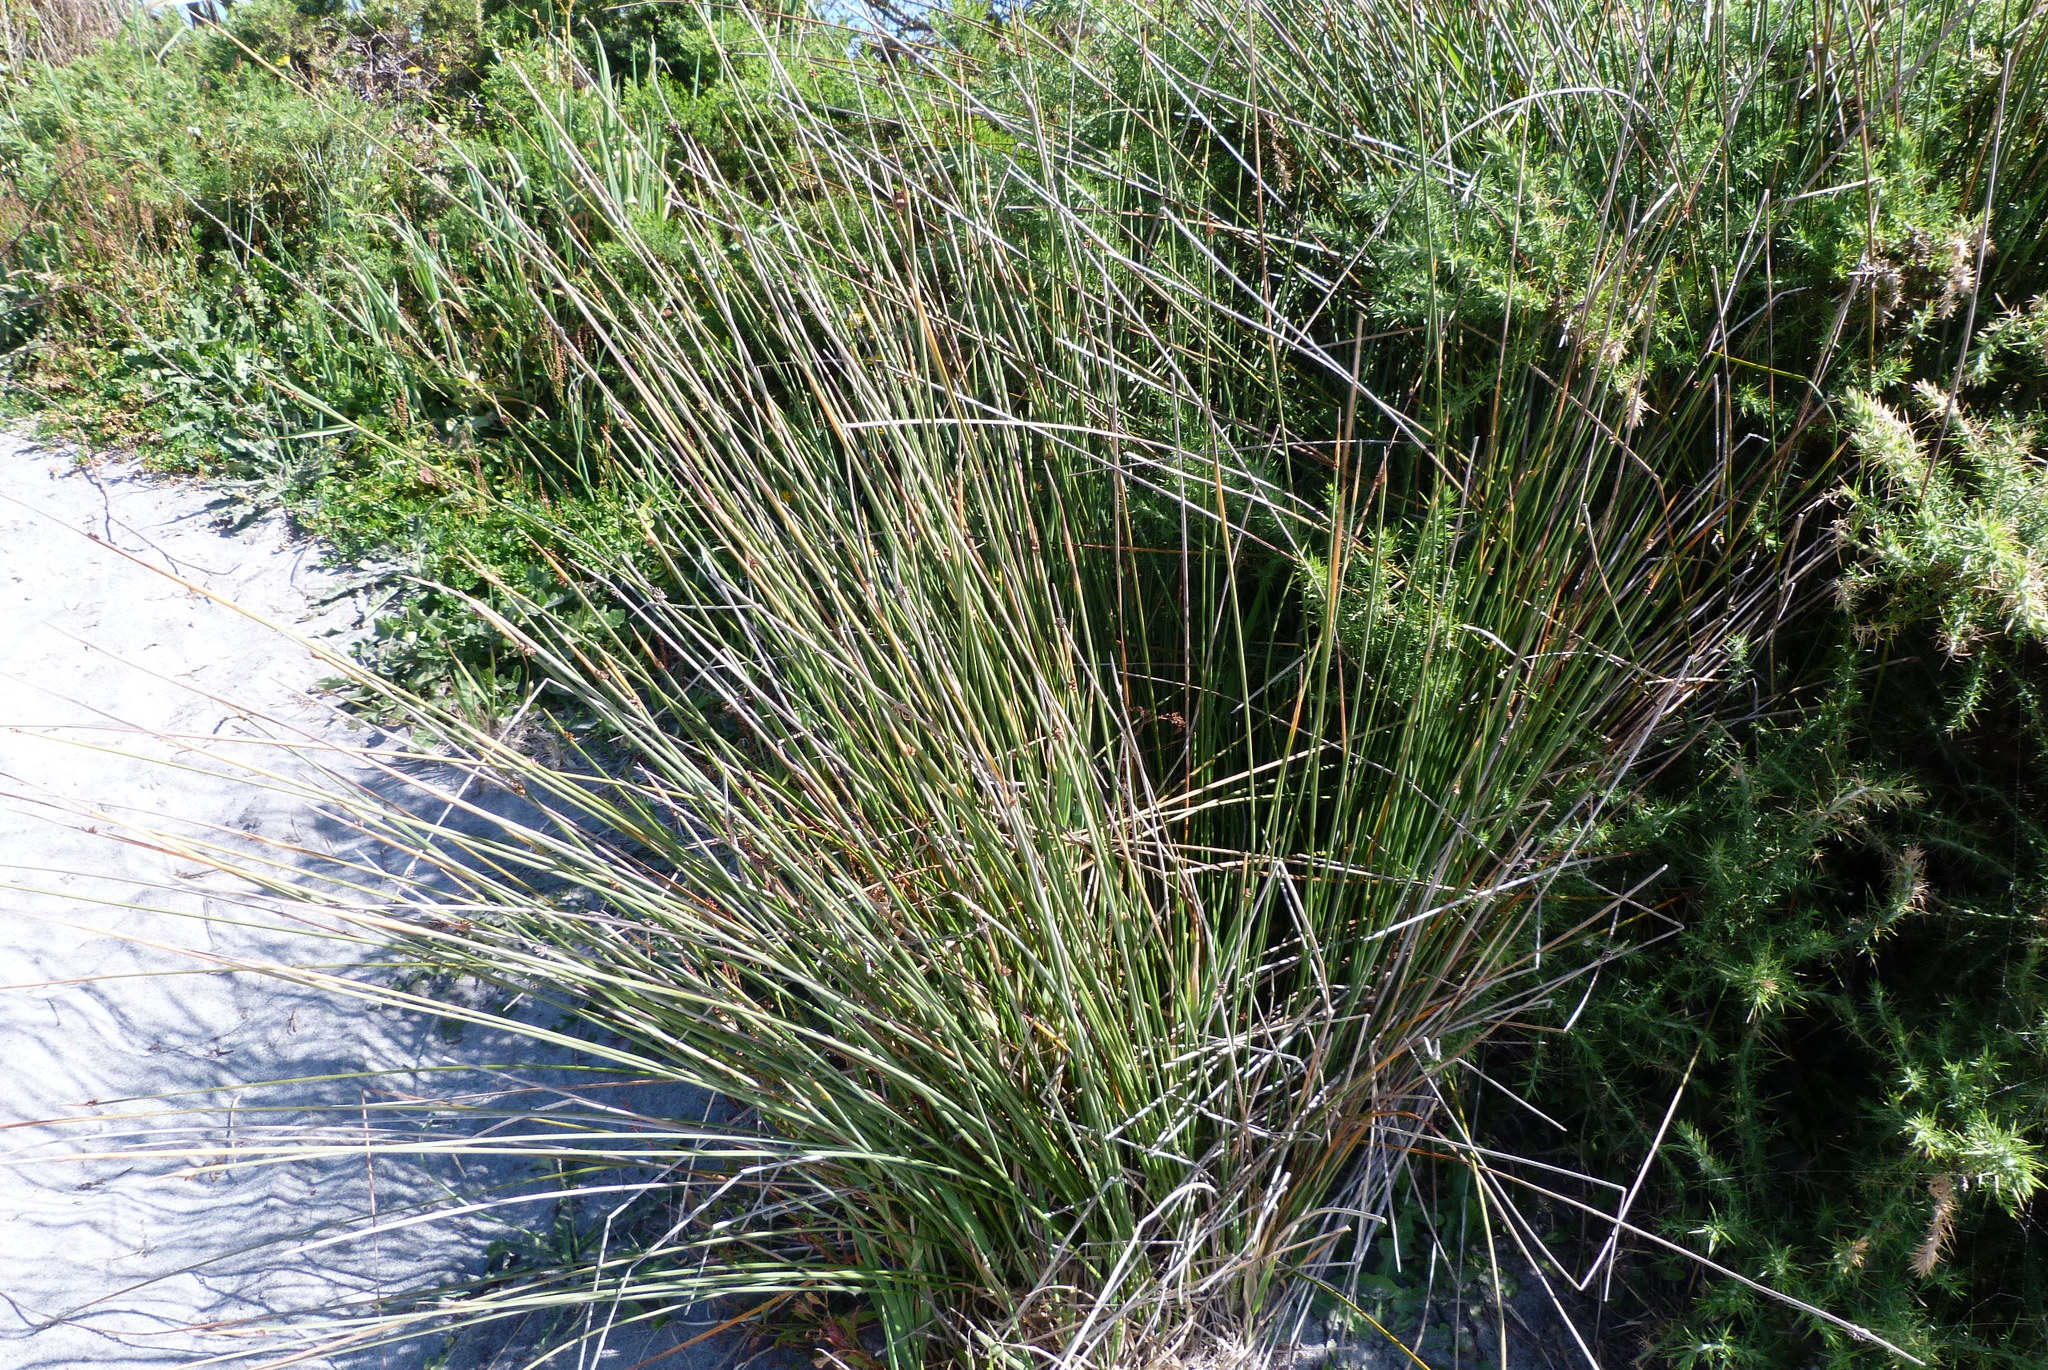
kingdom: Plantae
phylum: Tracheophyta
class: Liliopsida
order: Poales
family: Cyperaceae
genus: Ficinia
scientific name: Ficinia nodosa
